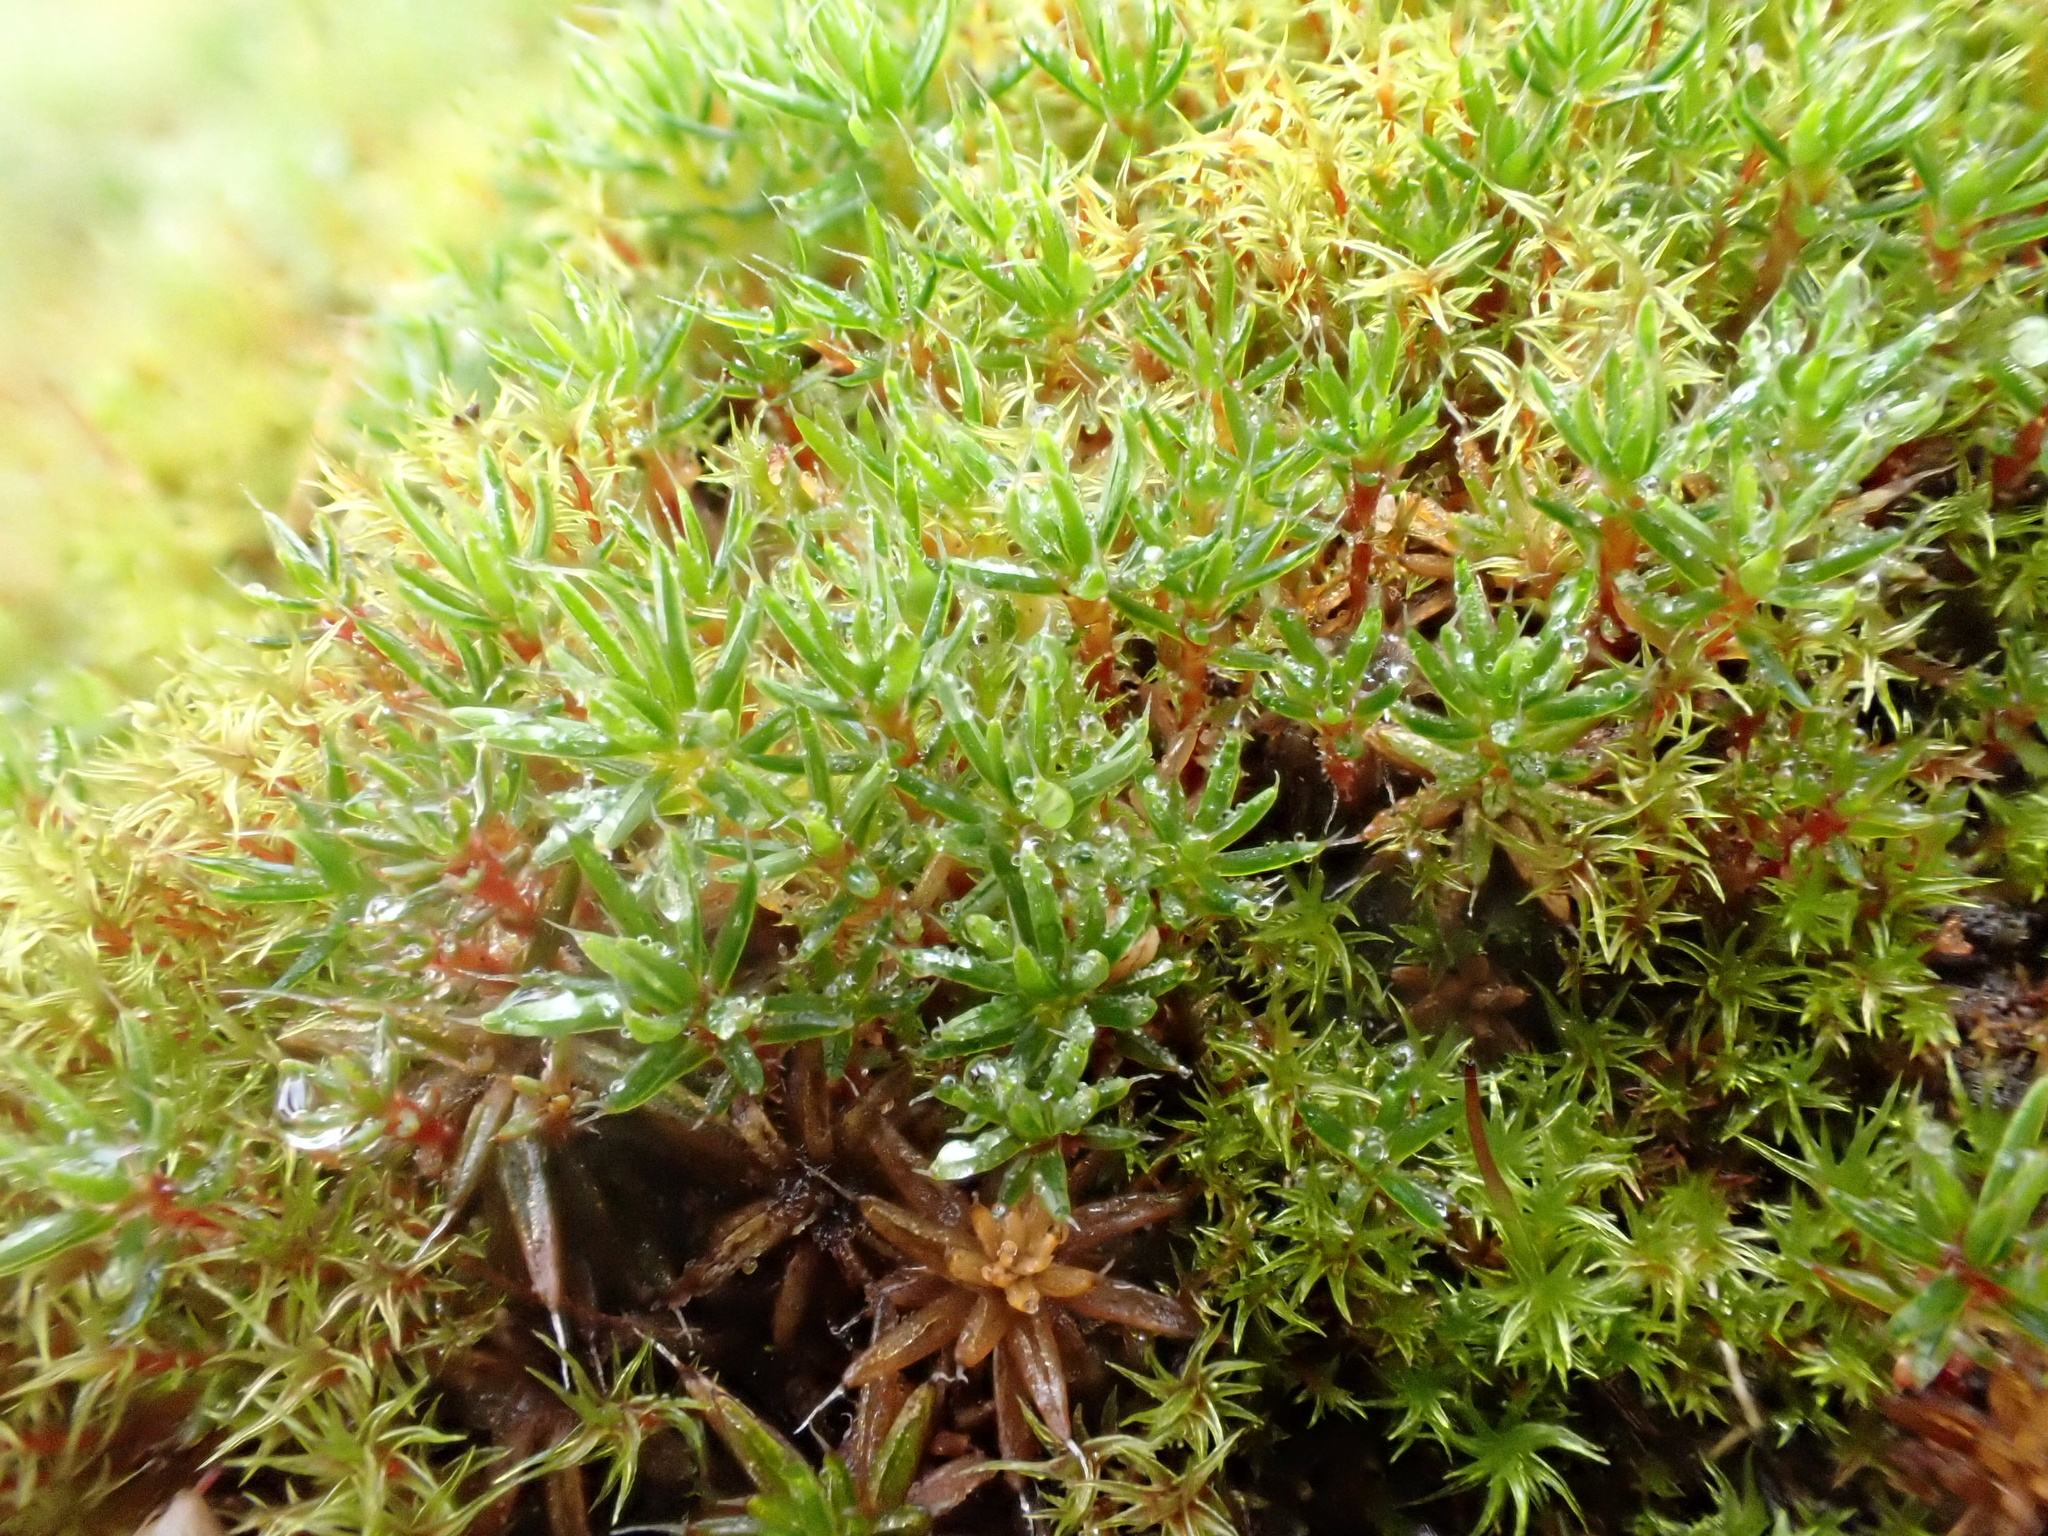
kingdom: Plantae
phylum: Bryophyta
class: Polytrichopsida
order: Polytrichales
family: Polytrichaceae
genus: Polytrichum
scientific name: Polytrichum piliferum
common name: Bristly haircap
